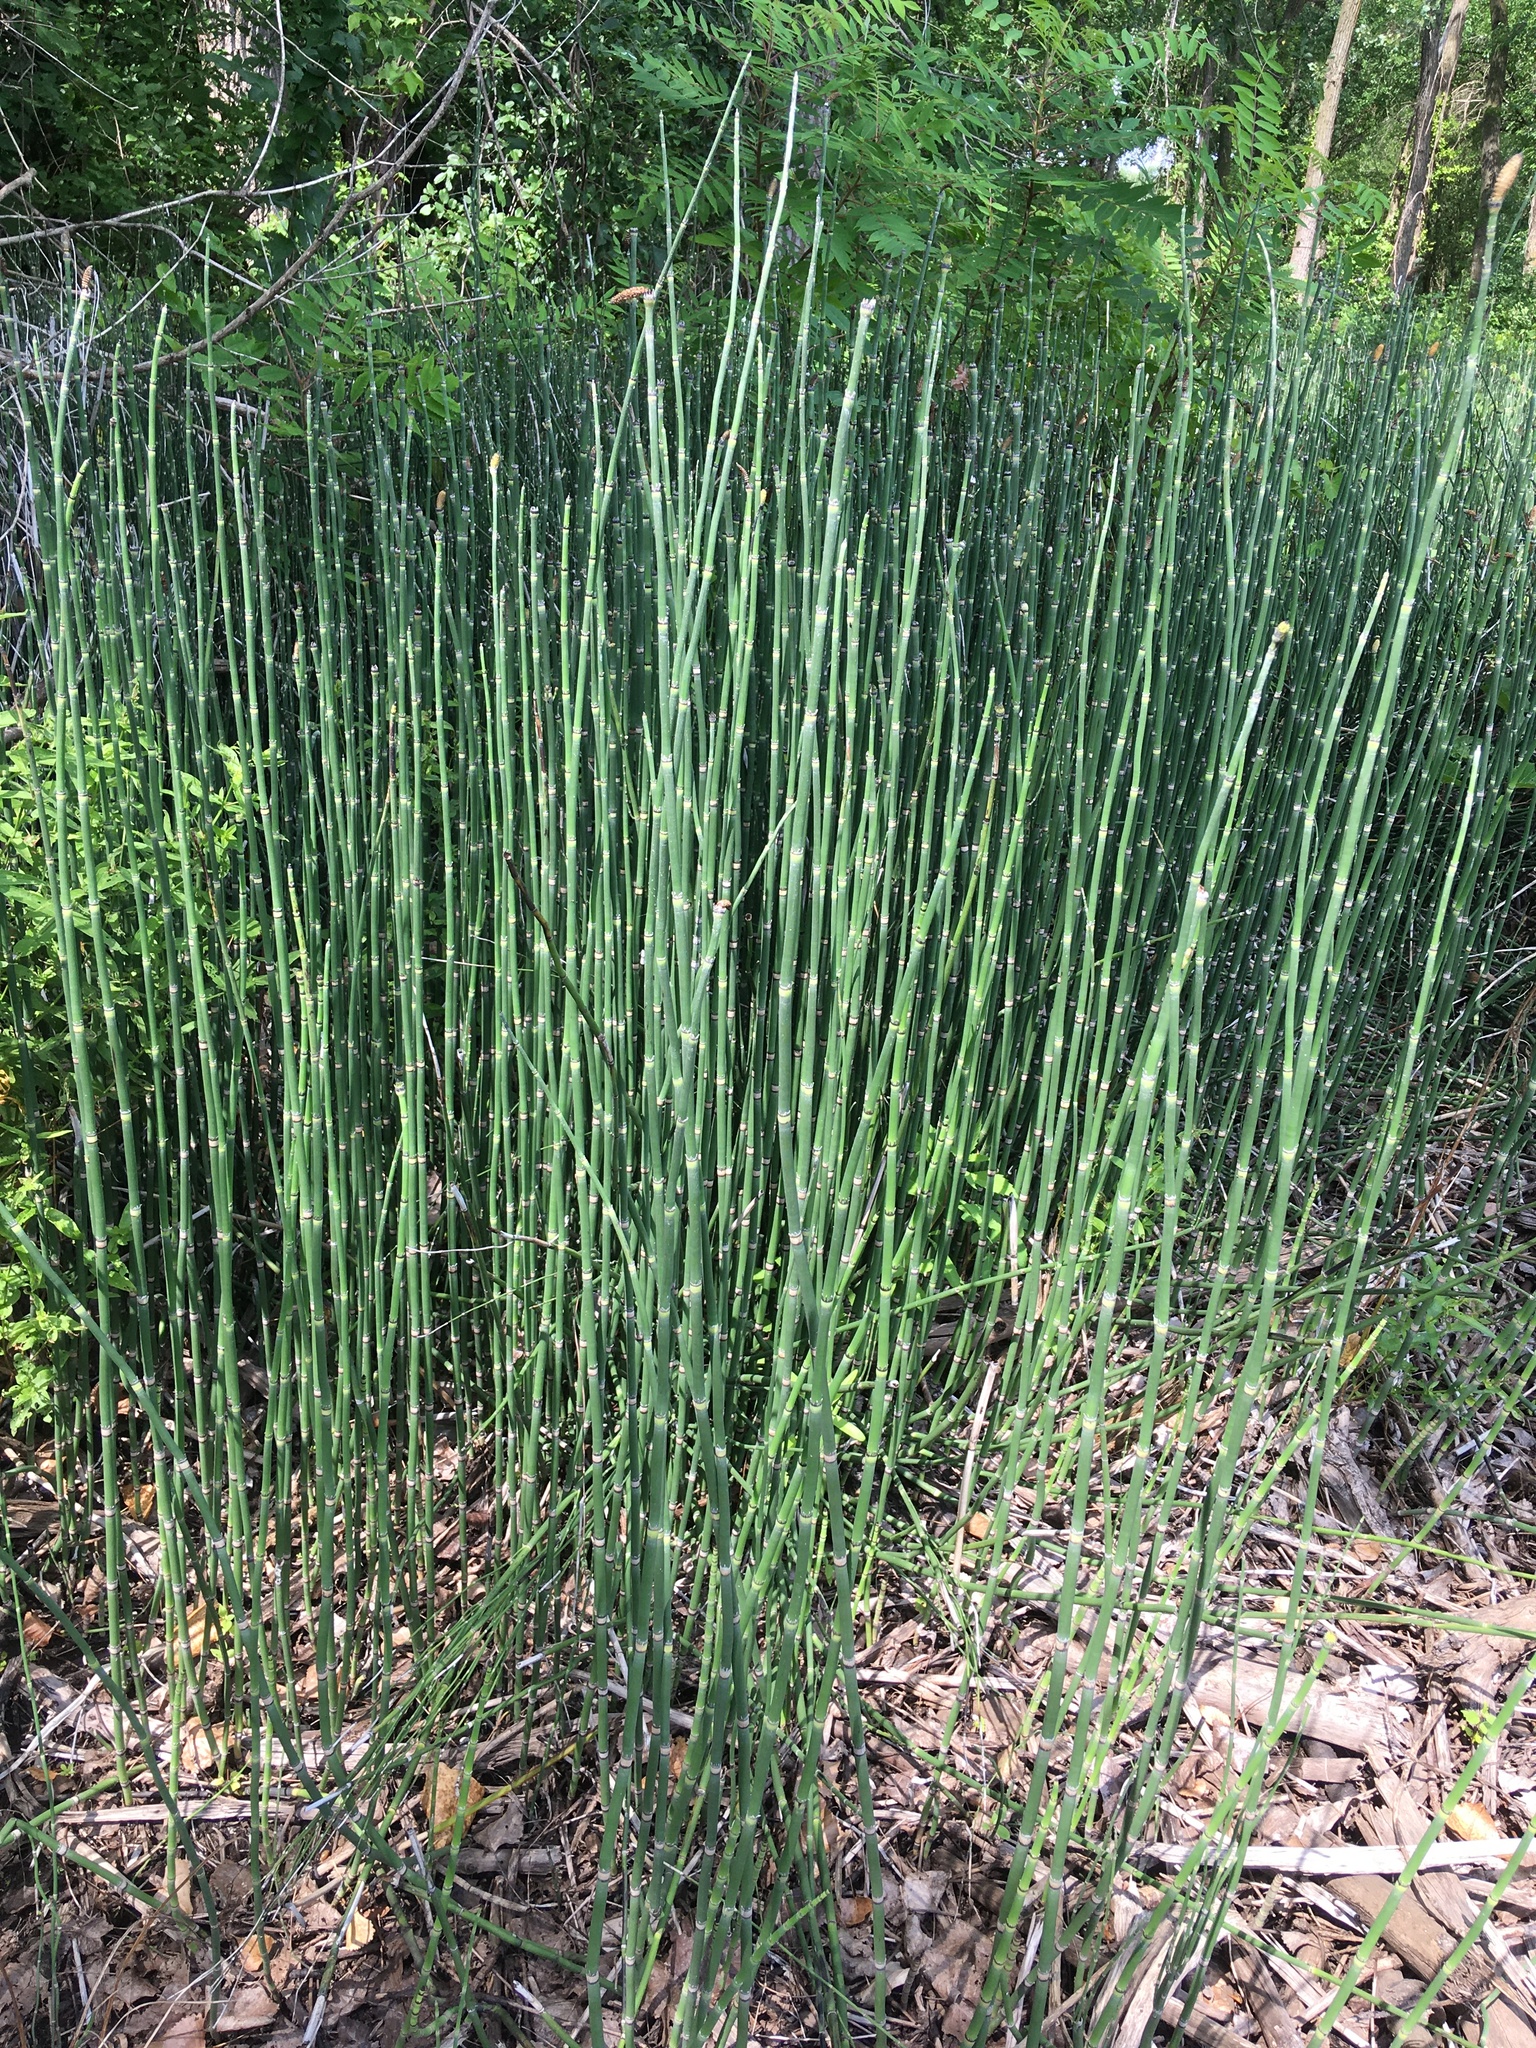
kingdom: Plantae
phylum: Tracheophyta
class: Polypodiopsida
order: Equisetales
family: Equisetaceae
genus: Equisetum
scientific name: Equisetum hyemale
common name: Rough horsetail
